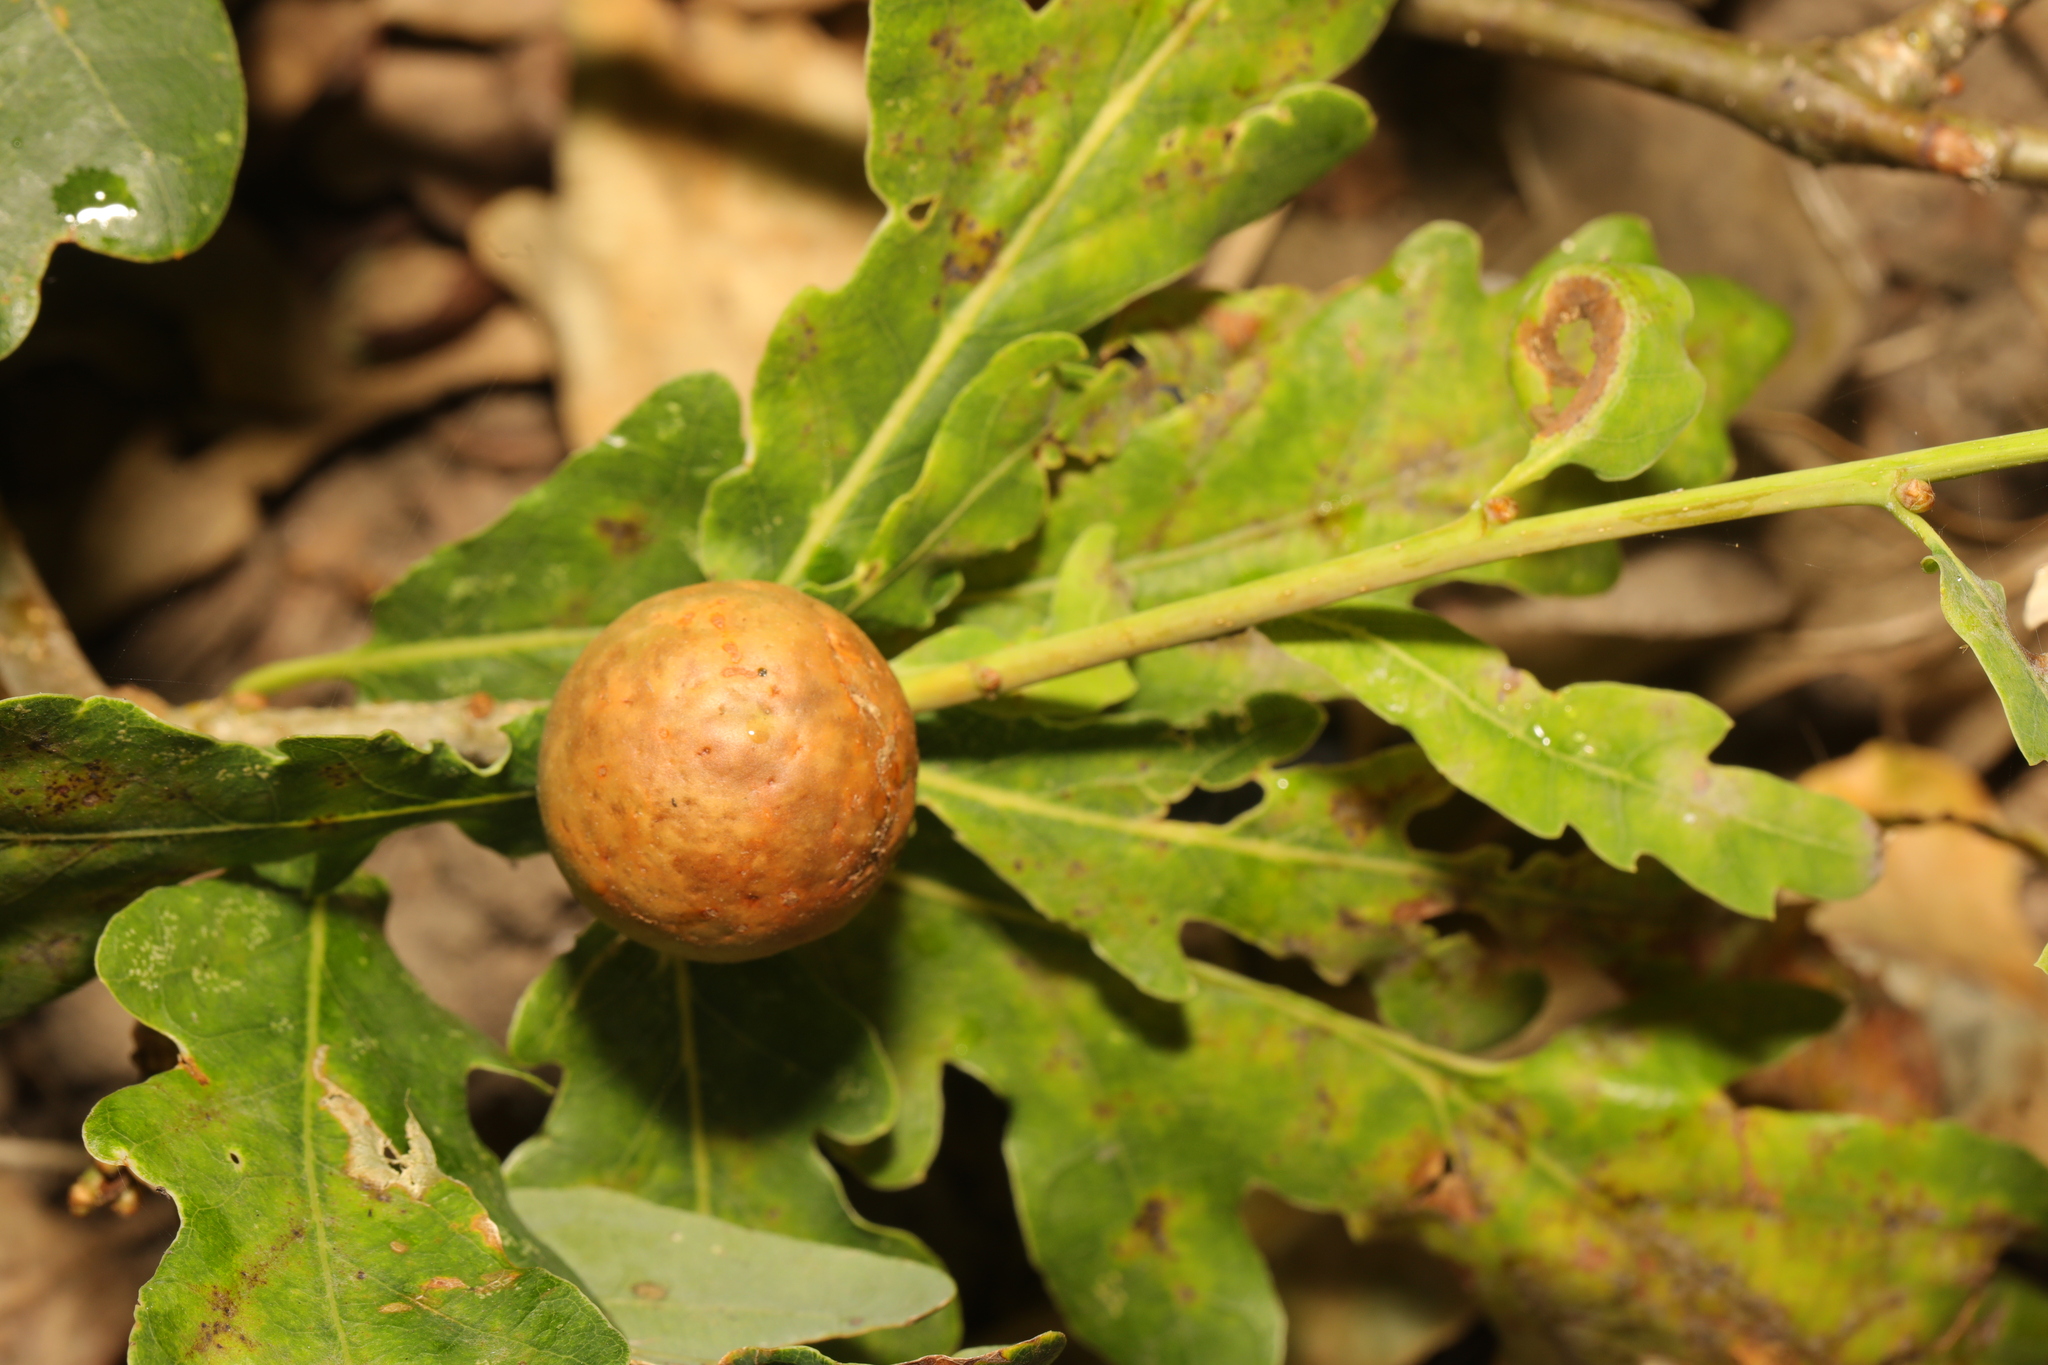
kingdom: Animalia
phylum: Arthropoda
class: Insecta
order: Hymenoptera
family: Cynipidae
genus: Andricus
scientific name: Andricus kollari
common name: Marble gall
